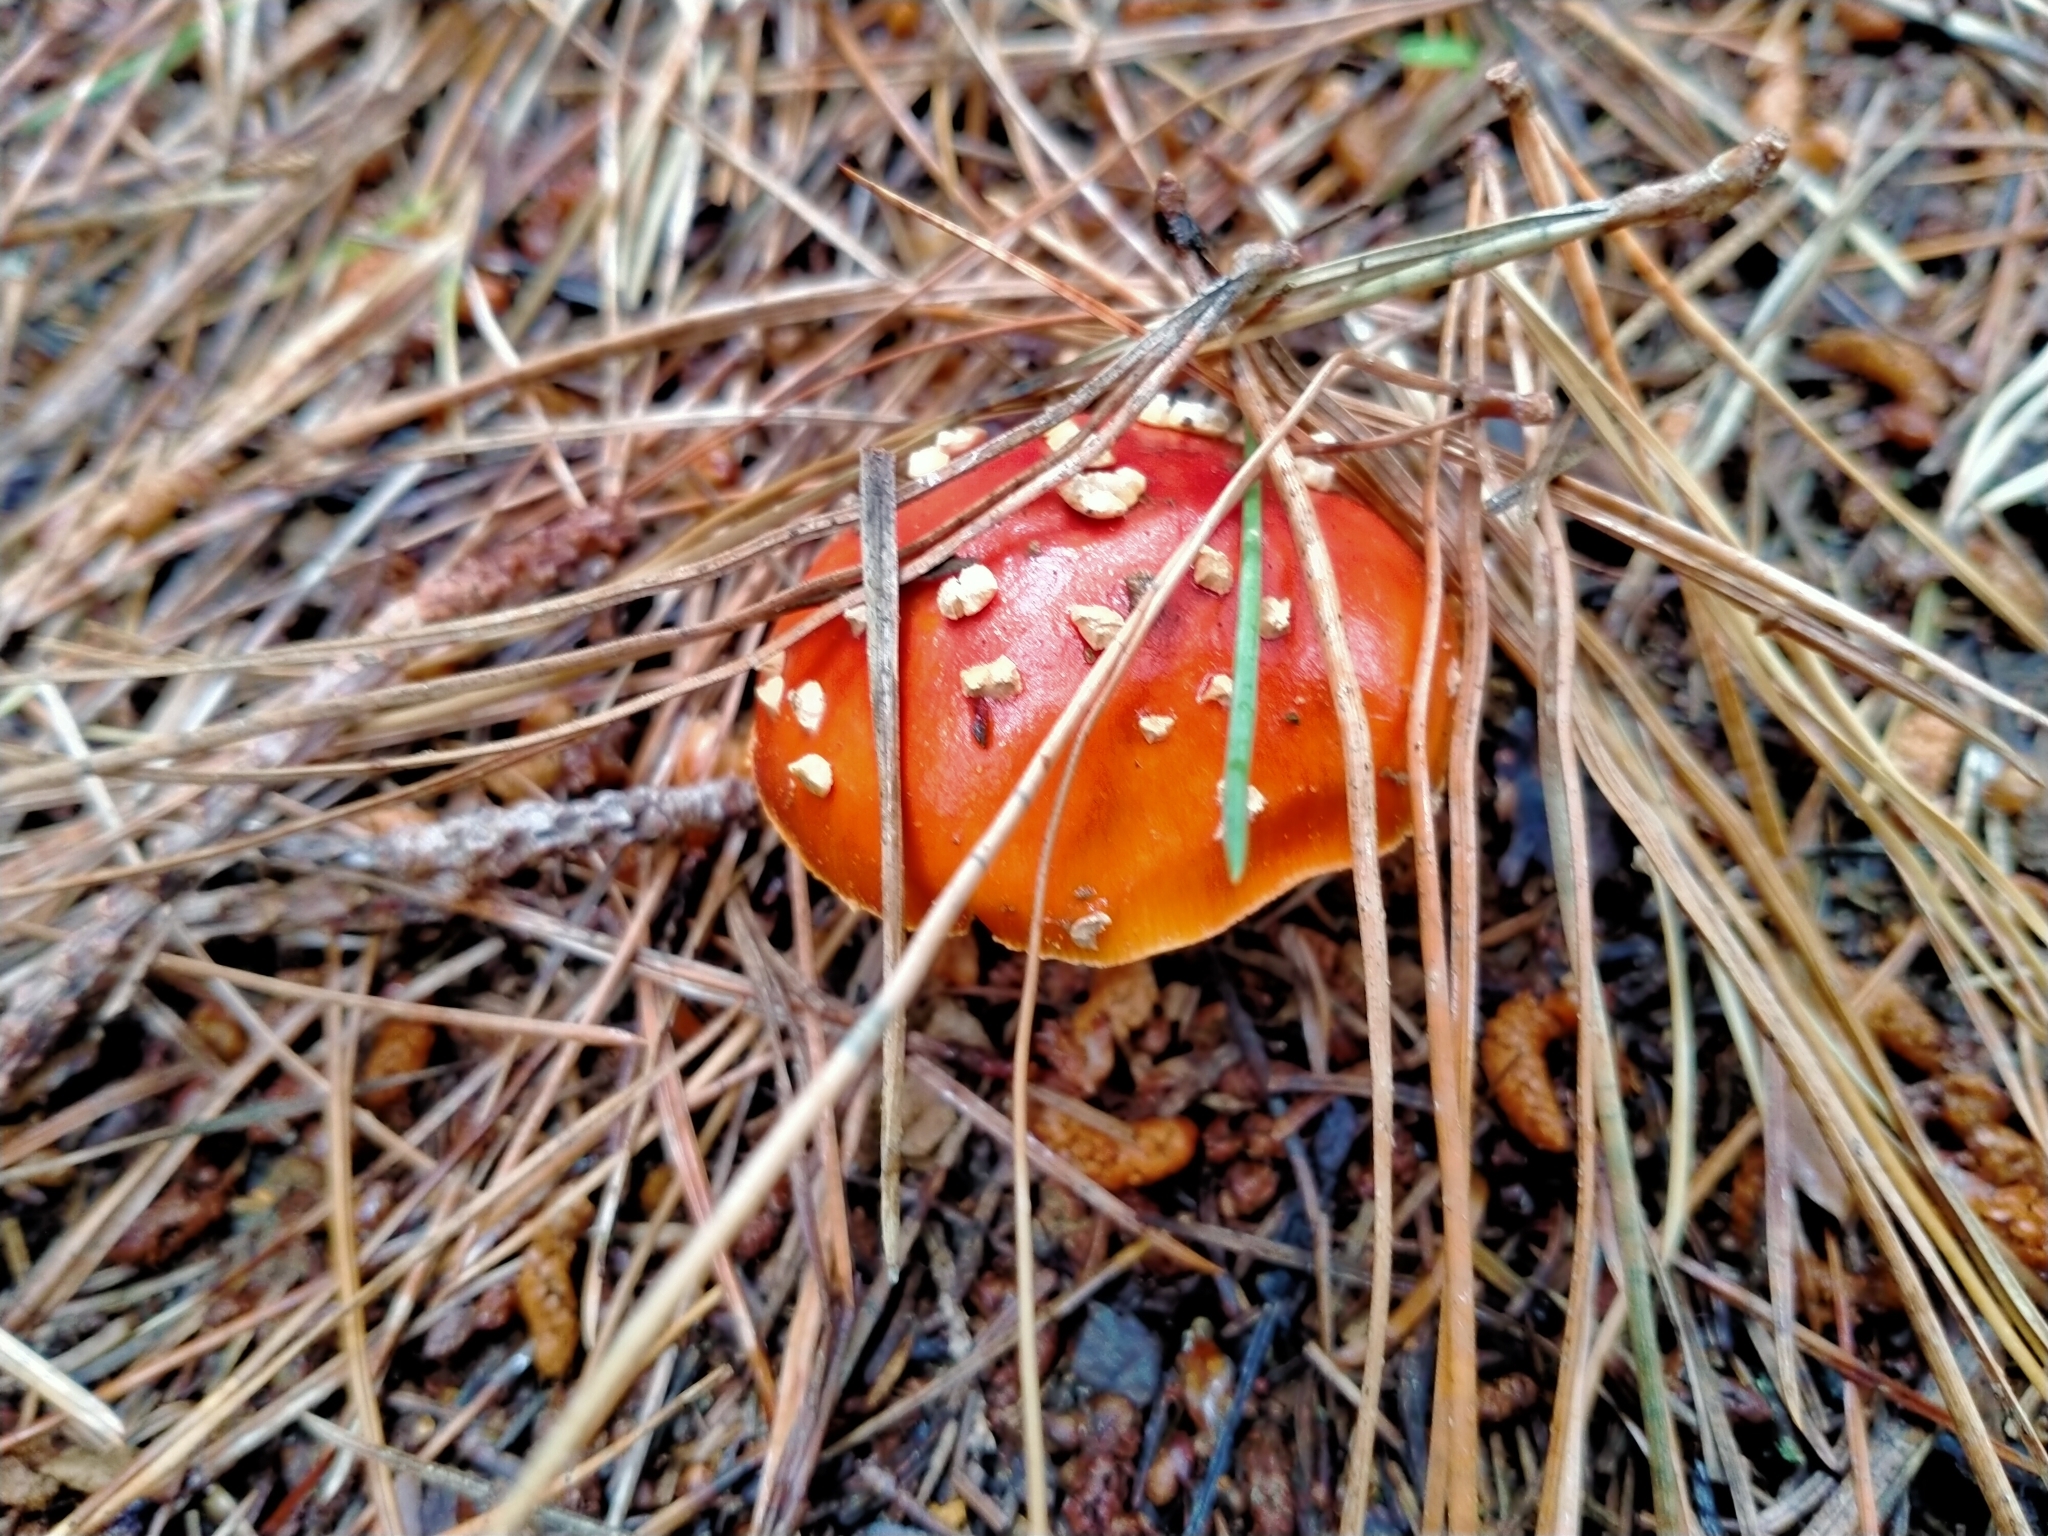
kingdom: Fungi
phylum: Basidiomycota
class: Agaricomycetes
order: Agaricales
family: Amanitaceae
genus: Amanita
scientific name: Amanita muscaria
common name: Fly agaric
